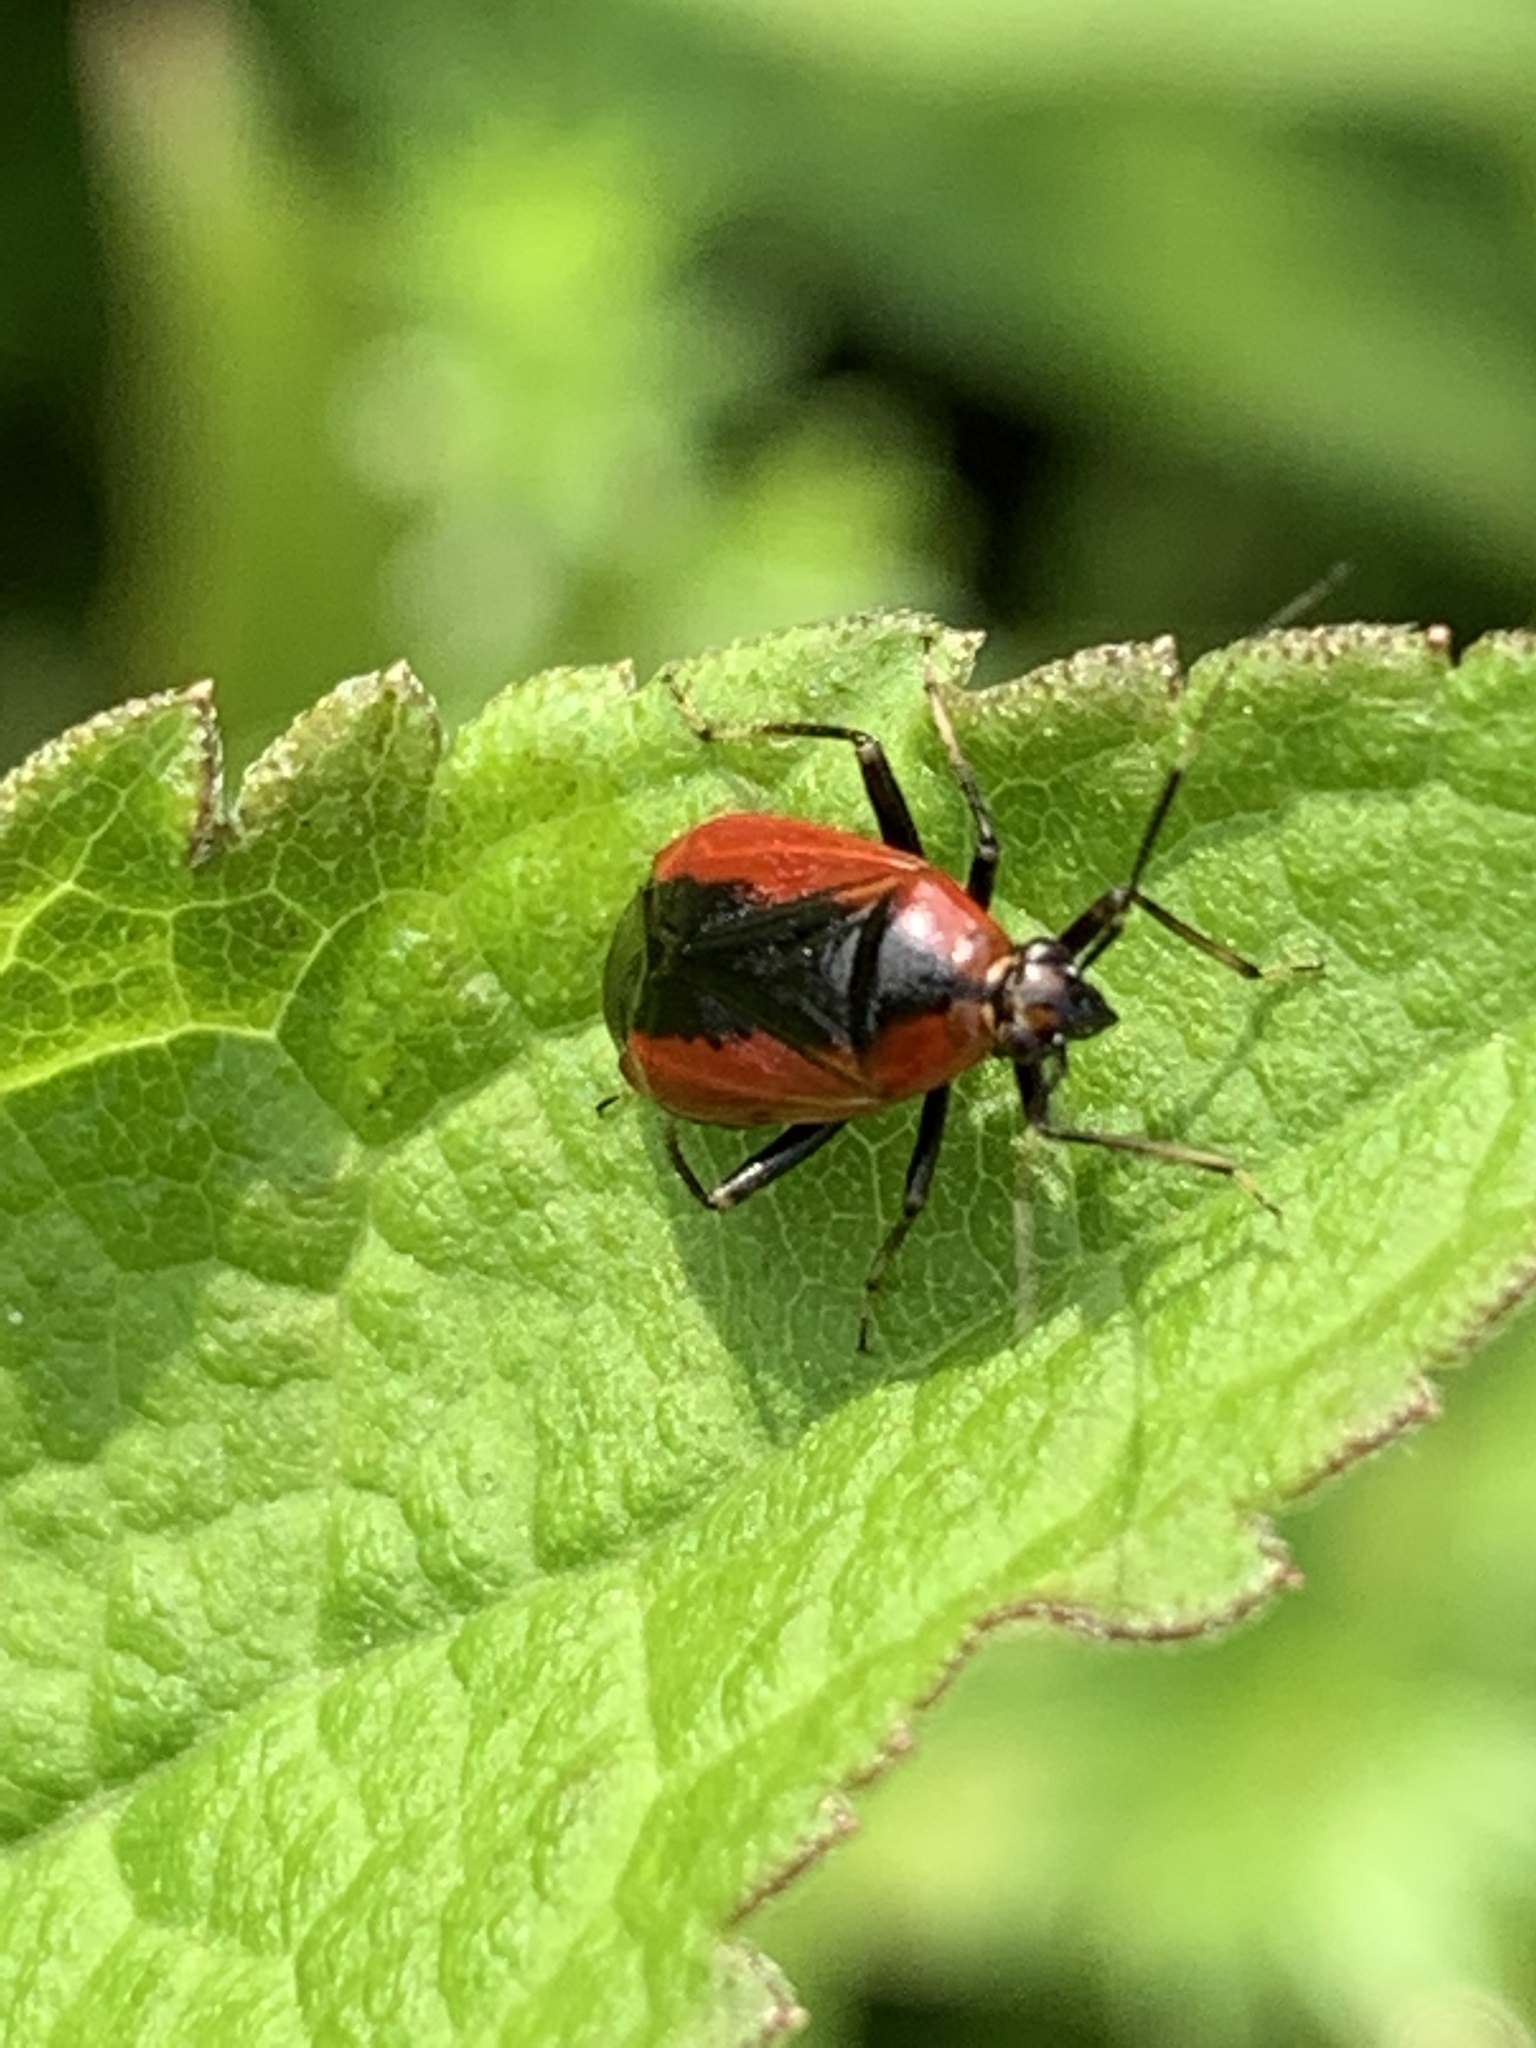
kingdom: Animalia
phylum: Arthropoda
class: Insecta
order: Hemiptera
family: Miridae
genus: Metriorrhynchomiris
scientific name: Metriorrhynchomiris dislocatus
